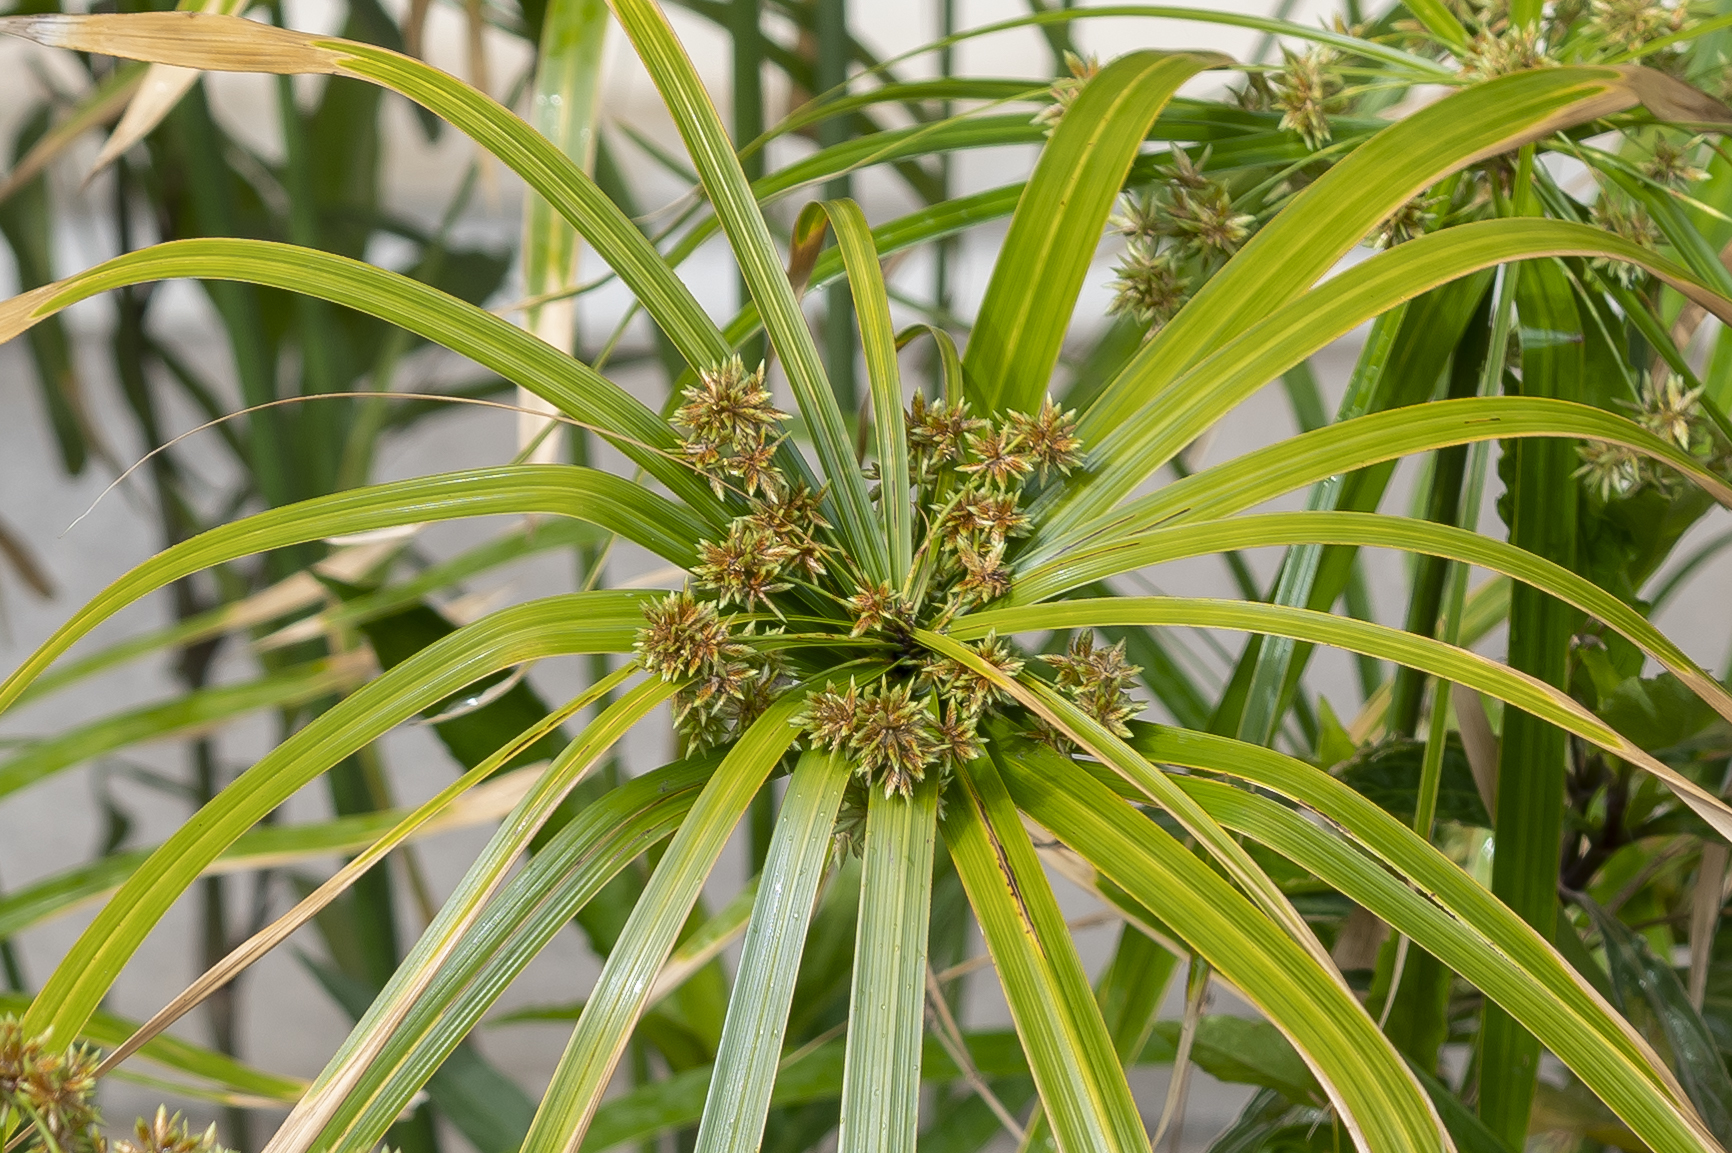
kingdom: Plantae
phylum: Tracheophyta
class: Liliopsida
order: Poales
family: Cyperaceae
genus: Cyperus
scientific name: Cyperus alternifolius
